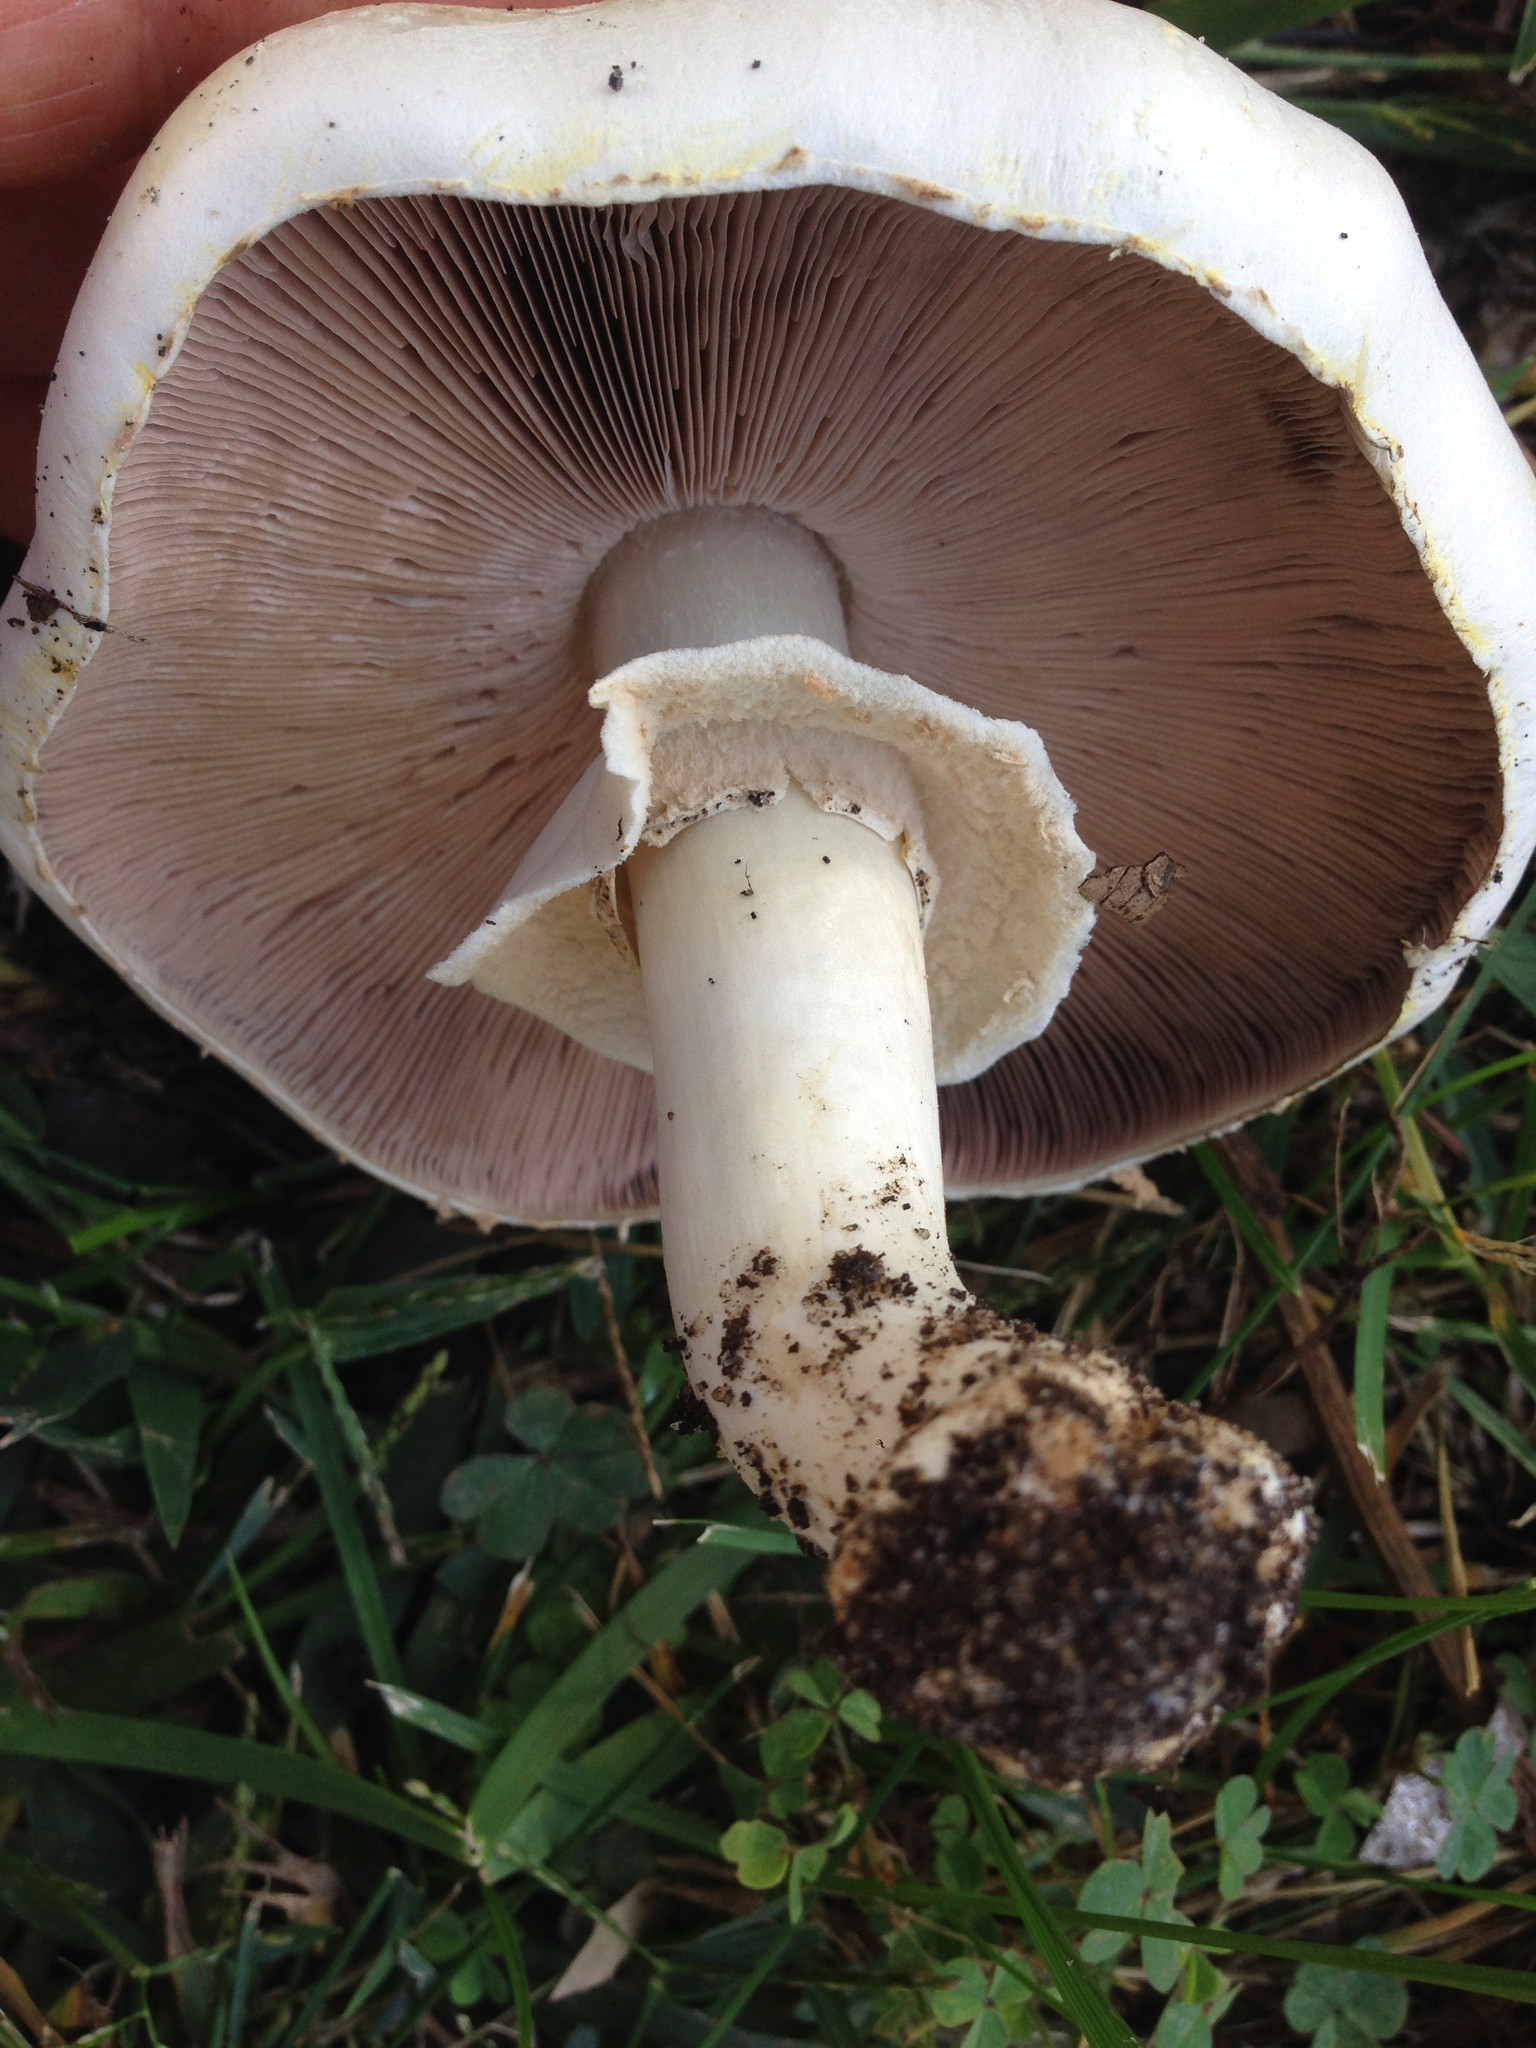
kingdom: Fungi
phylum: Basidiomycota
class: Agaricomycetes
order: Agaricales
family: Agaricaceae
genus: Agaricus
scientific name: Agaricus xanthodermus
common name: Yellow stainer
